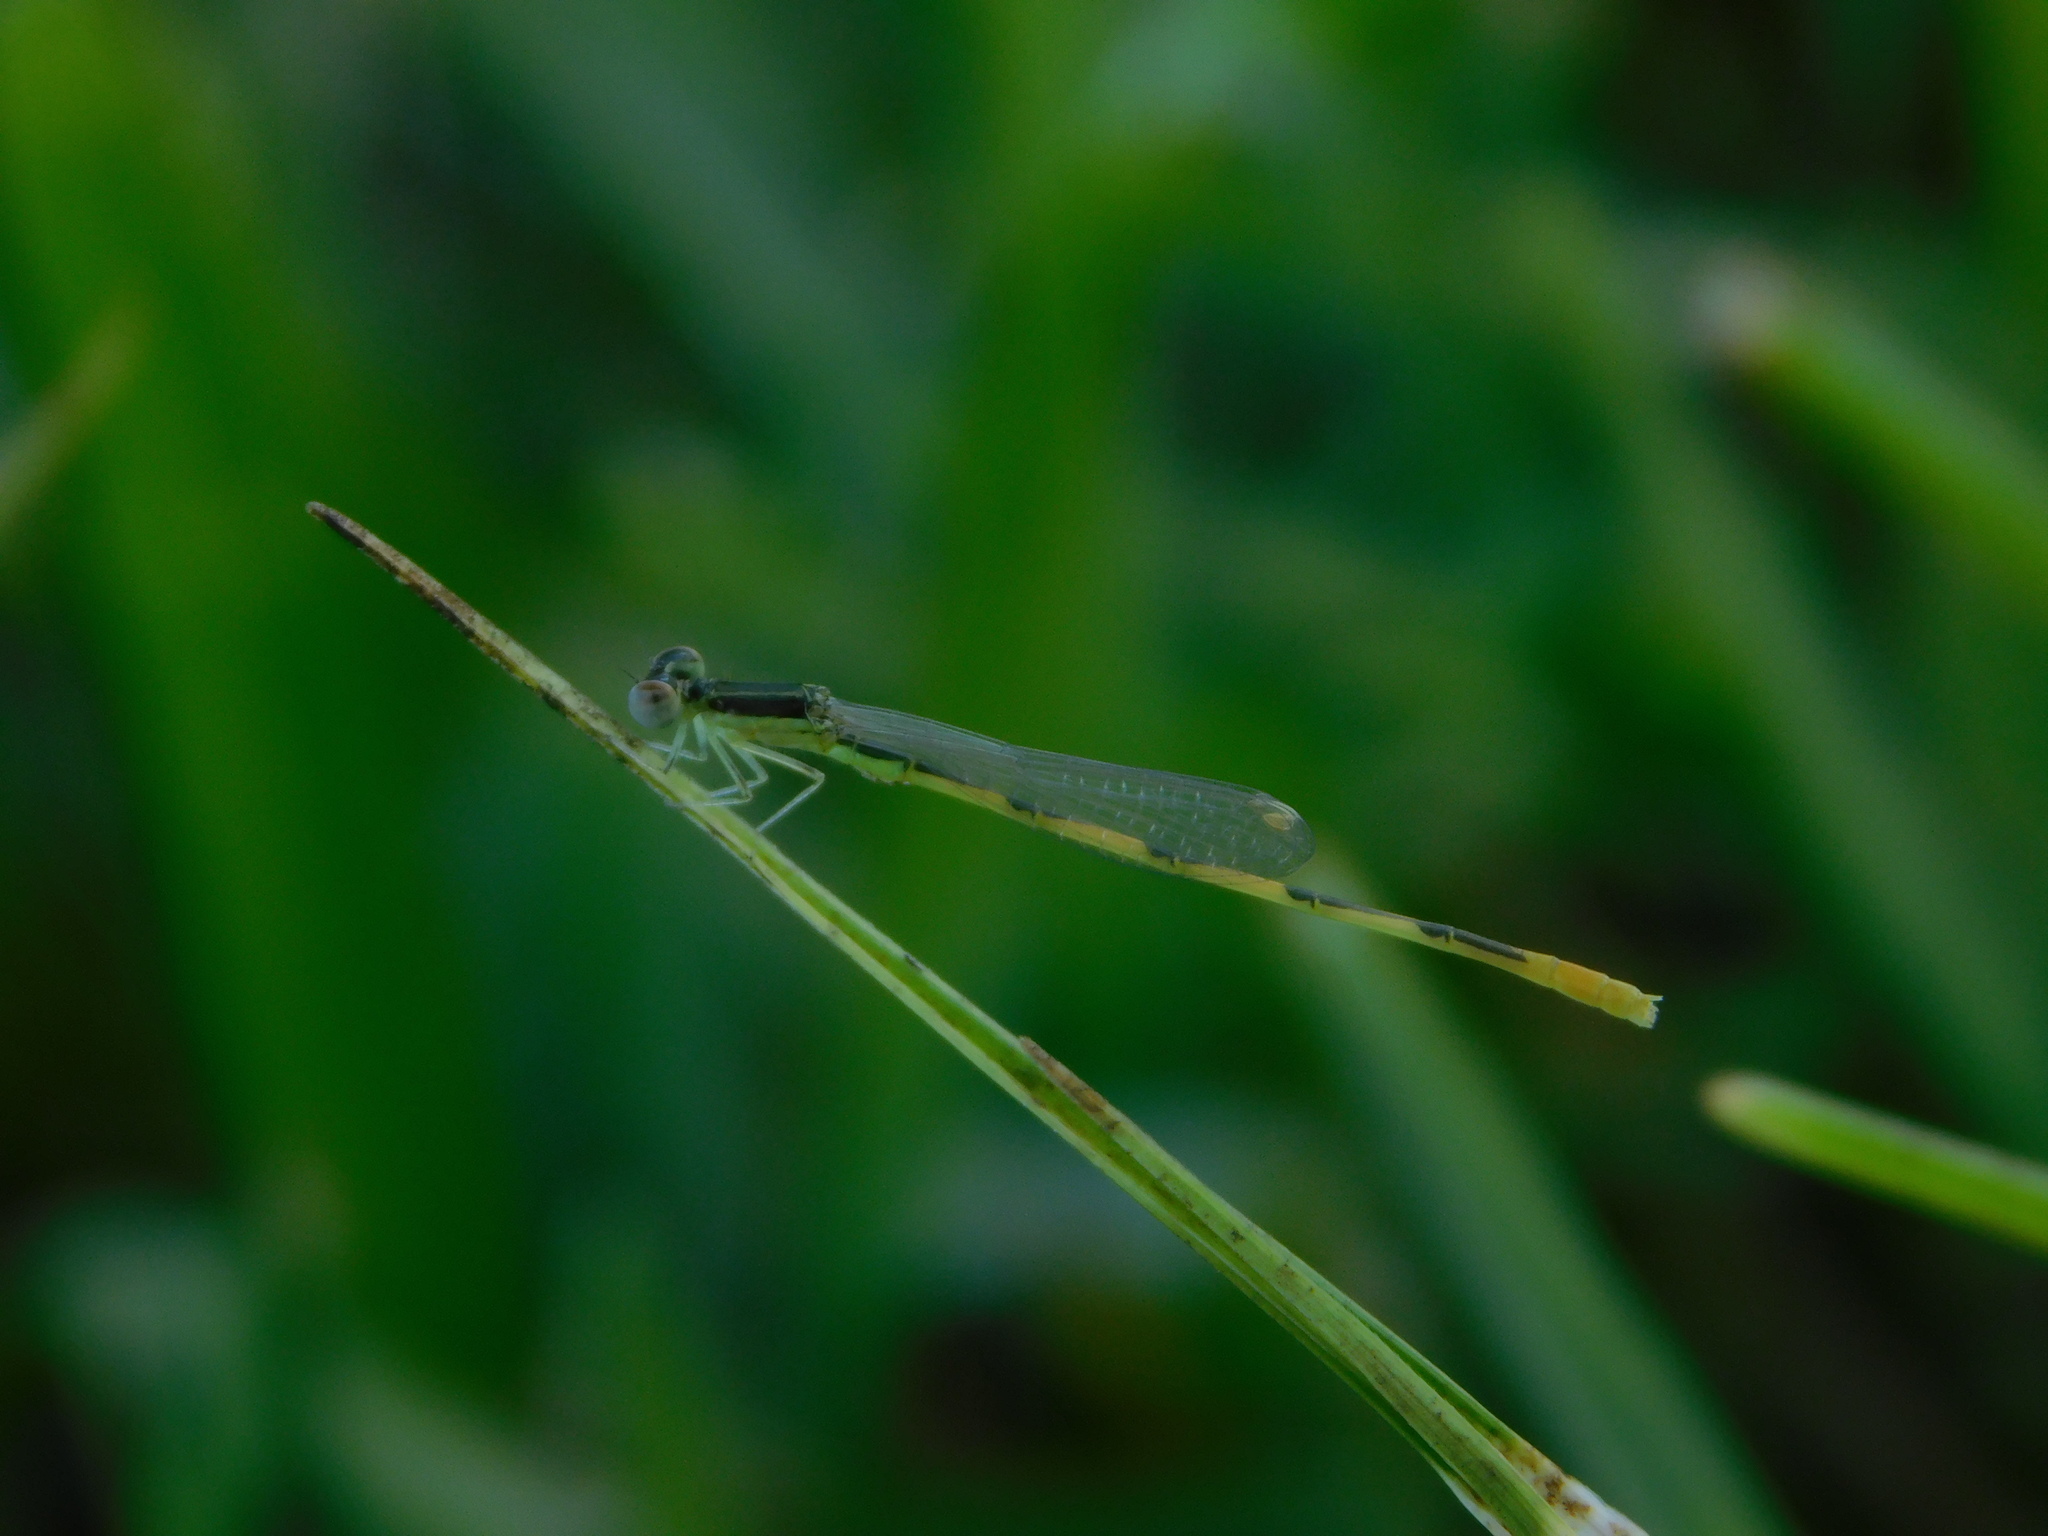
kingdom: Animalia
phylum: Arthropoda
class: Insecta
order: Odonata
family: Coenagrionidae
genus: Ischnura
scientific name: Ischnura hastata
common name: Citrine forktail
